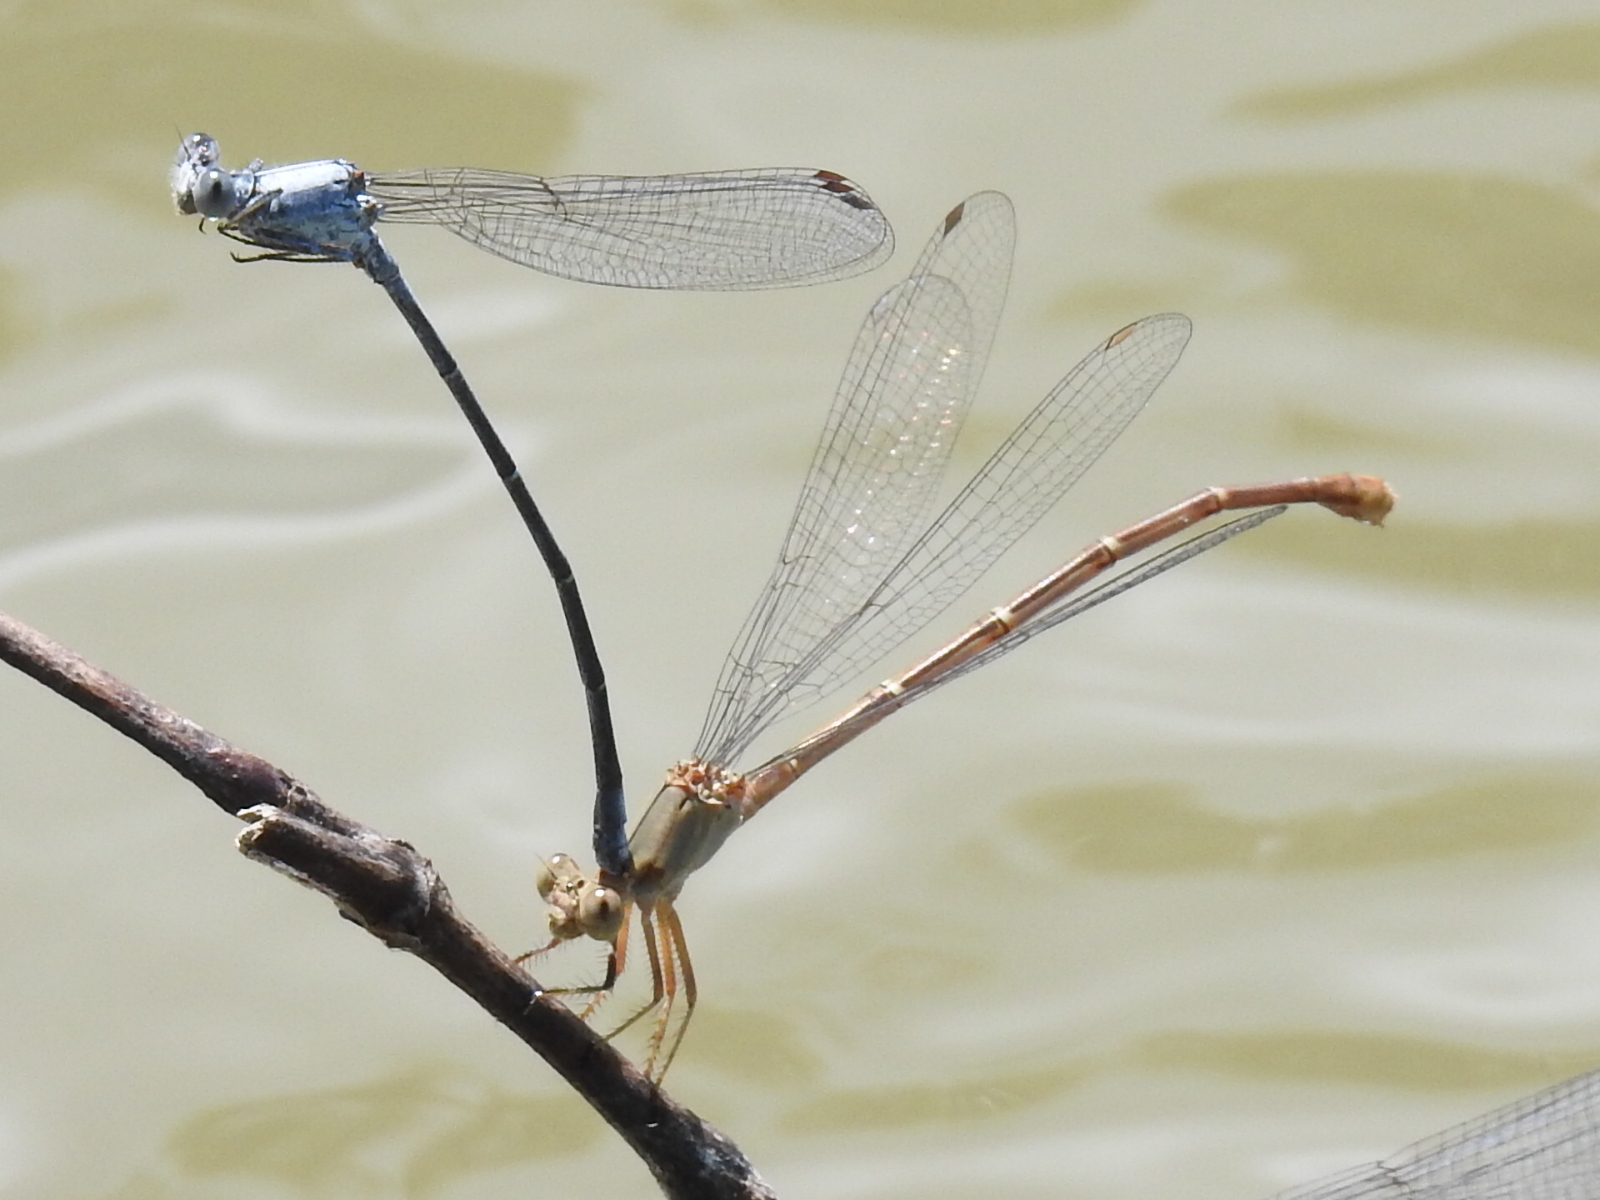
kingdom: Animalia
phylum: Arthropoda
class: Insecta
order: Odonata
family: Coenagrionidae
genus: Argia
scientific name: Argia moesta
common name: Powdered dancer
